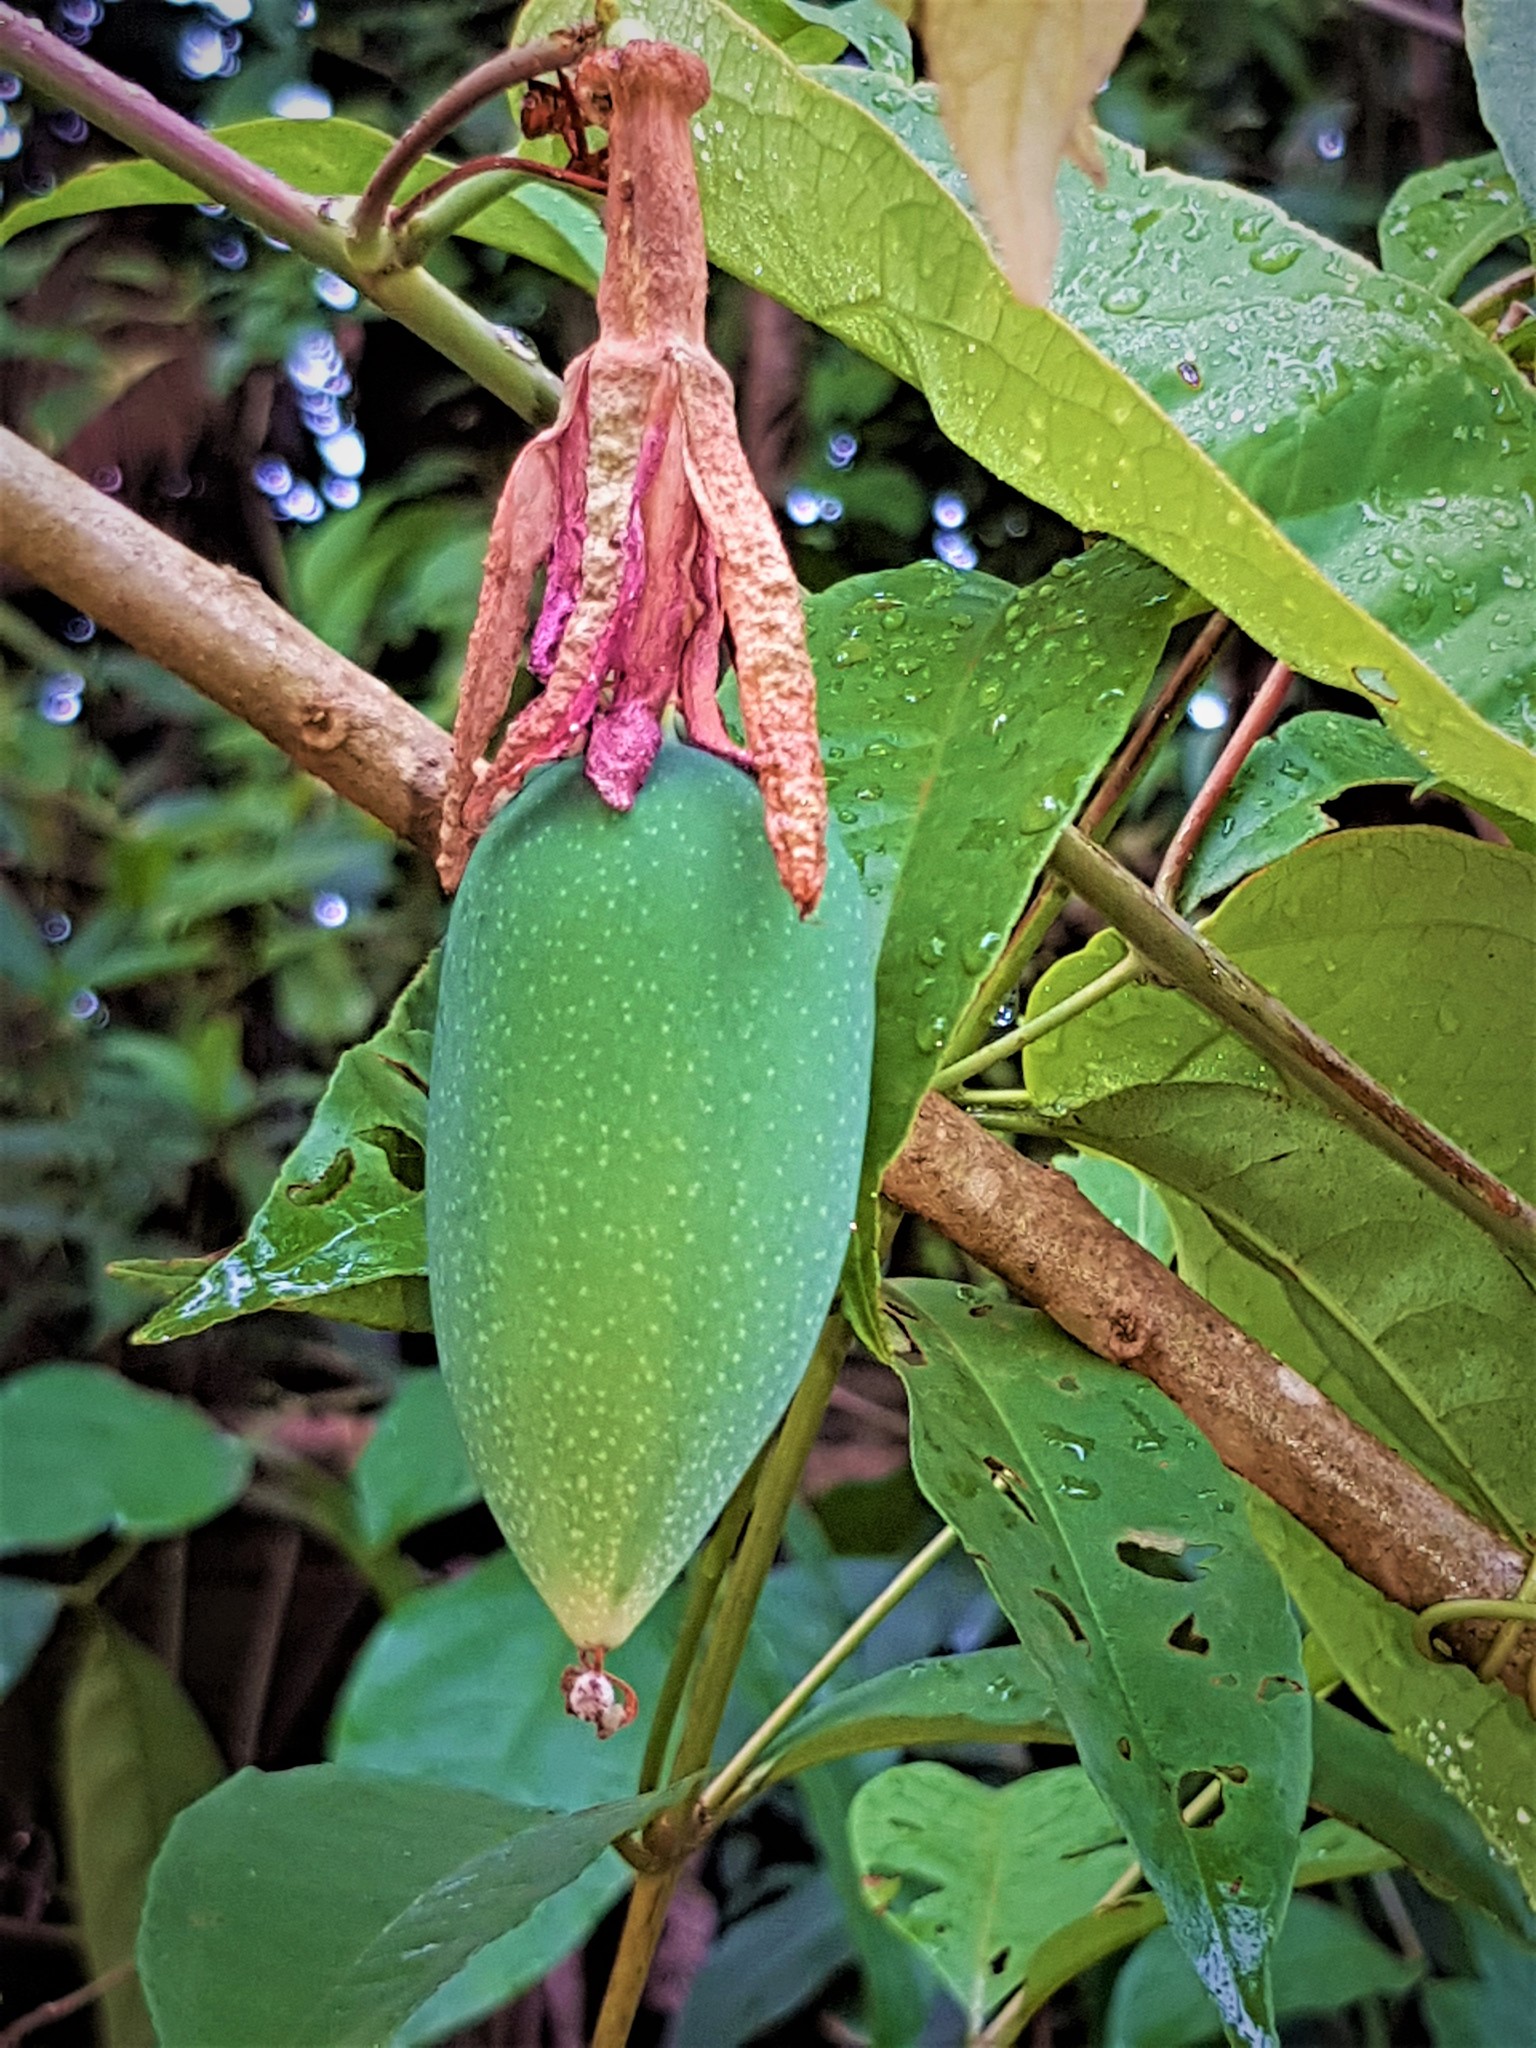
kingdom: Plantae
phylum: Tracheophyta
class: Magnoliopsida
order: Malpighiales
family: Passifloraceae
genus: Passiflora
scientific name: Passiflora glandulosa
